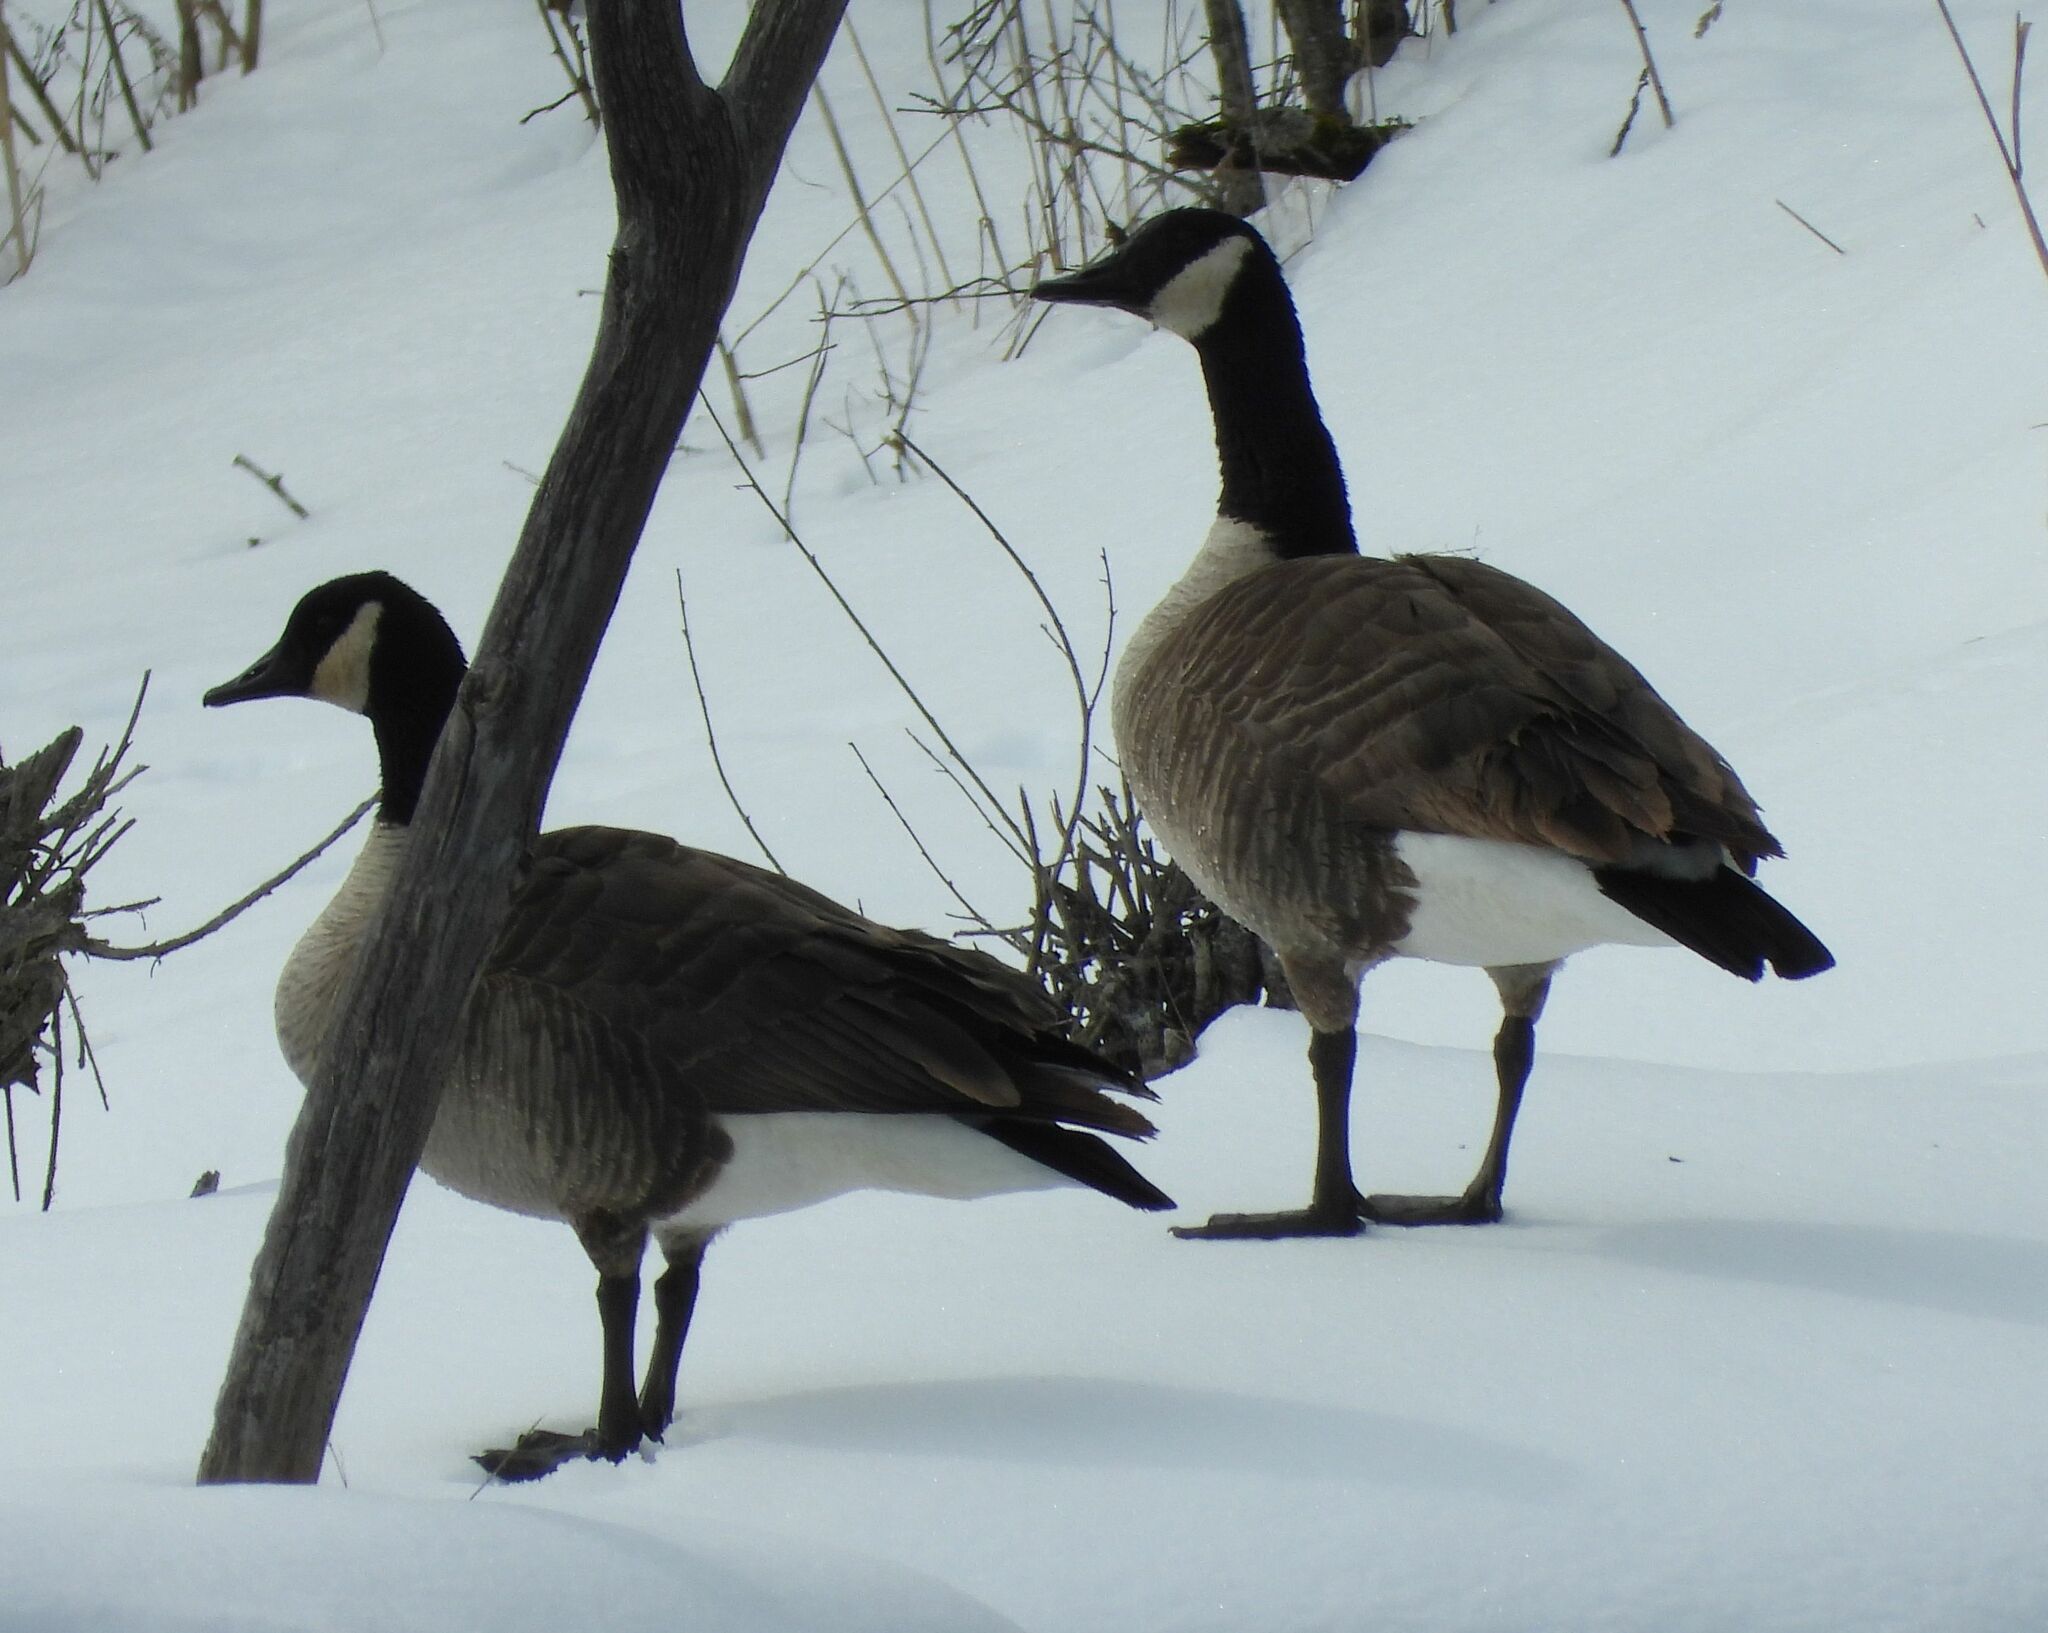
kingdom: Animalia
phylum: Chordata
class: Aves
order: Anseriformes
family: Anatidae
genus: Branta
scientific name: Branta canadensis
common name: Canada goose
